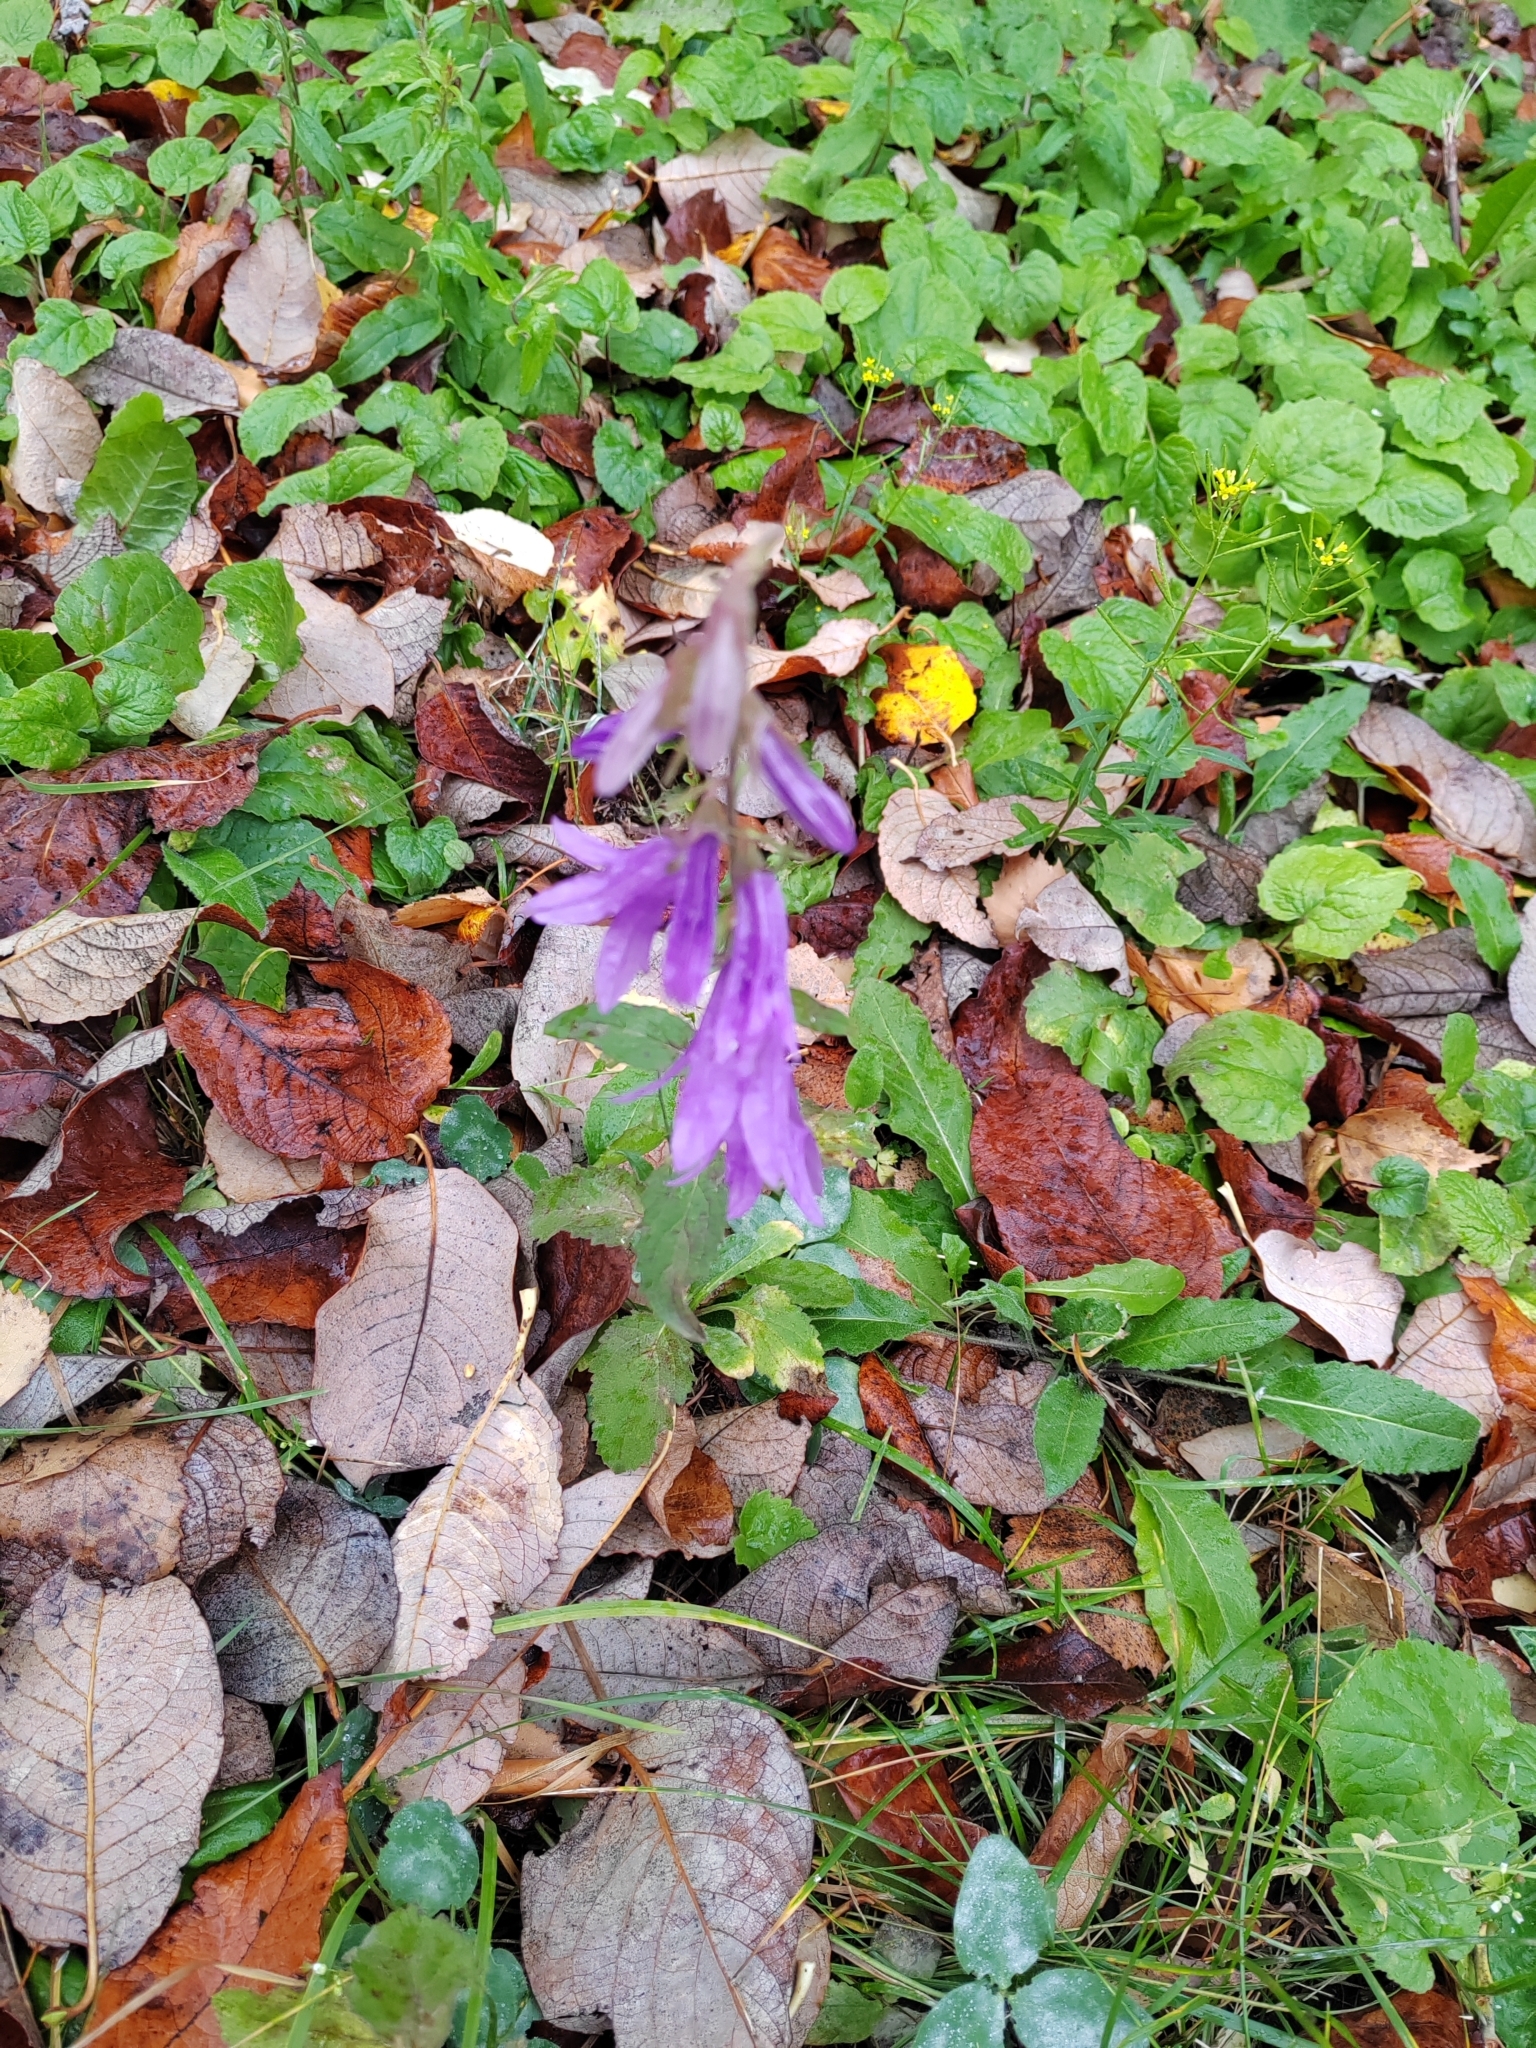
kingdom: Plantae
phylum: Tracheophyta
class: Magnoliopsida
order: Asterales
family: Campanulaceae
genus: Campanula
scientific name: Campanula rapunculoides
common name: Creeping bellflower
